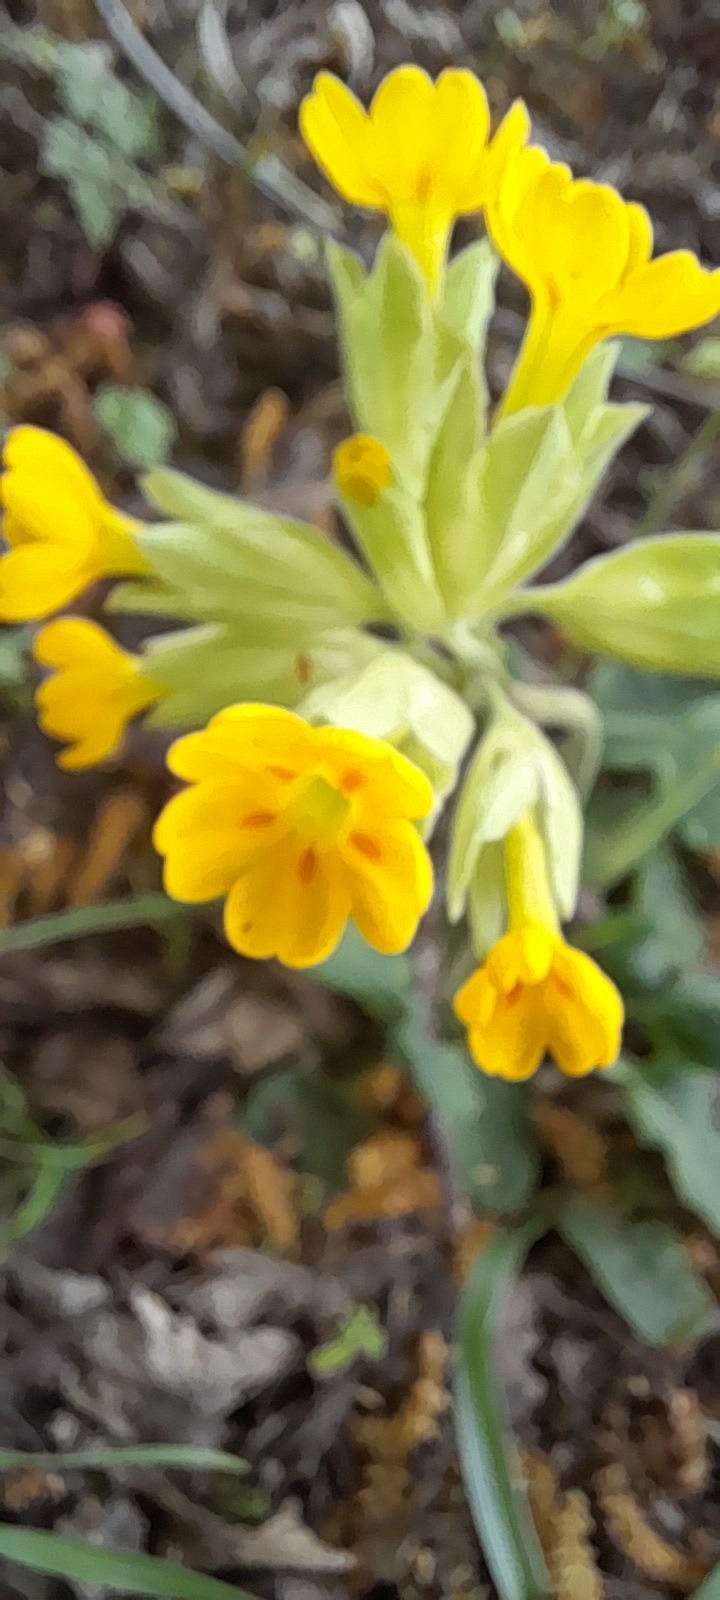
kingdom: Plantae
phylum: Tracheophyta
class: Magnoliopsida
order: Ericales
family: Primulaceae
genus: Primula
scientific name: Primula veris
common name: Cowslip
